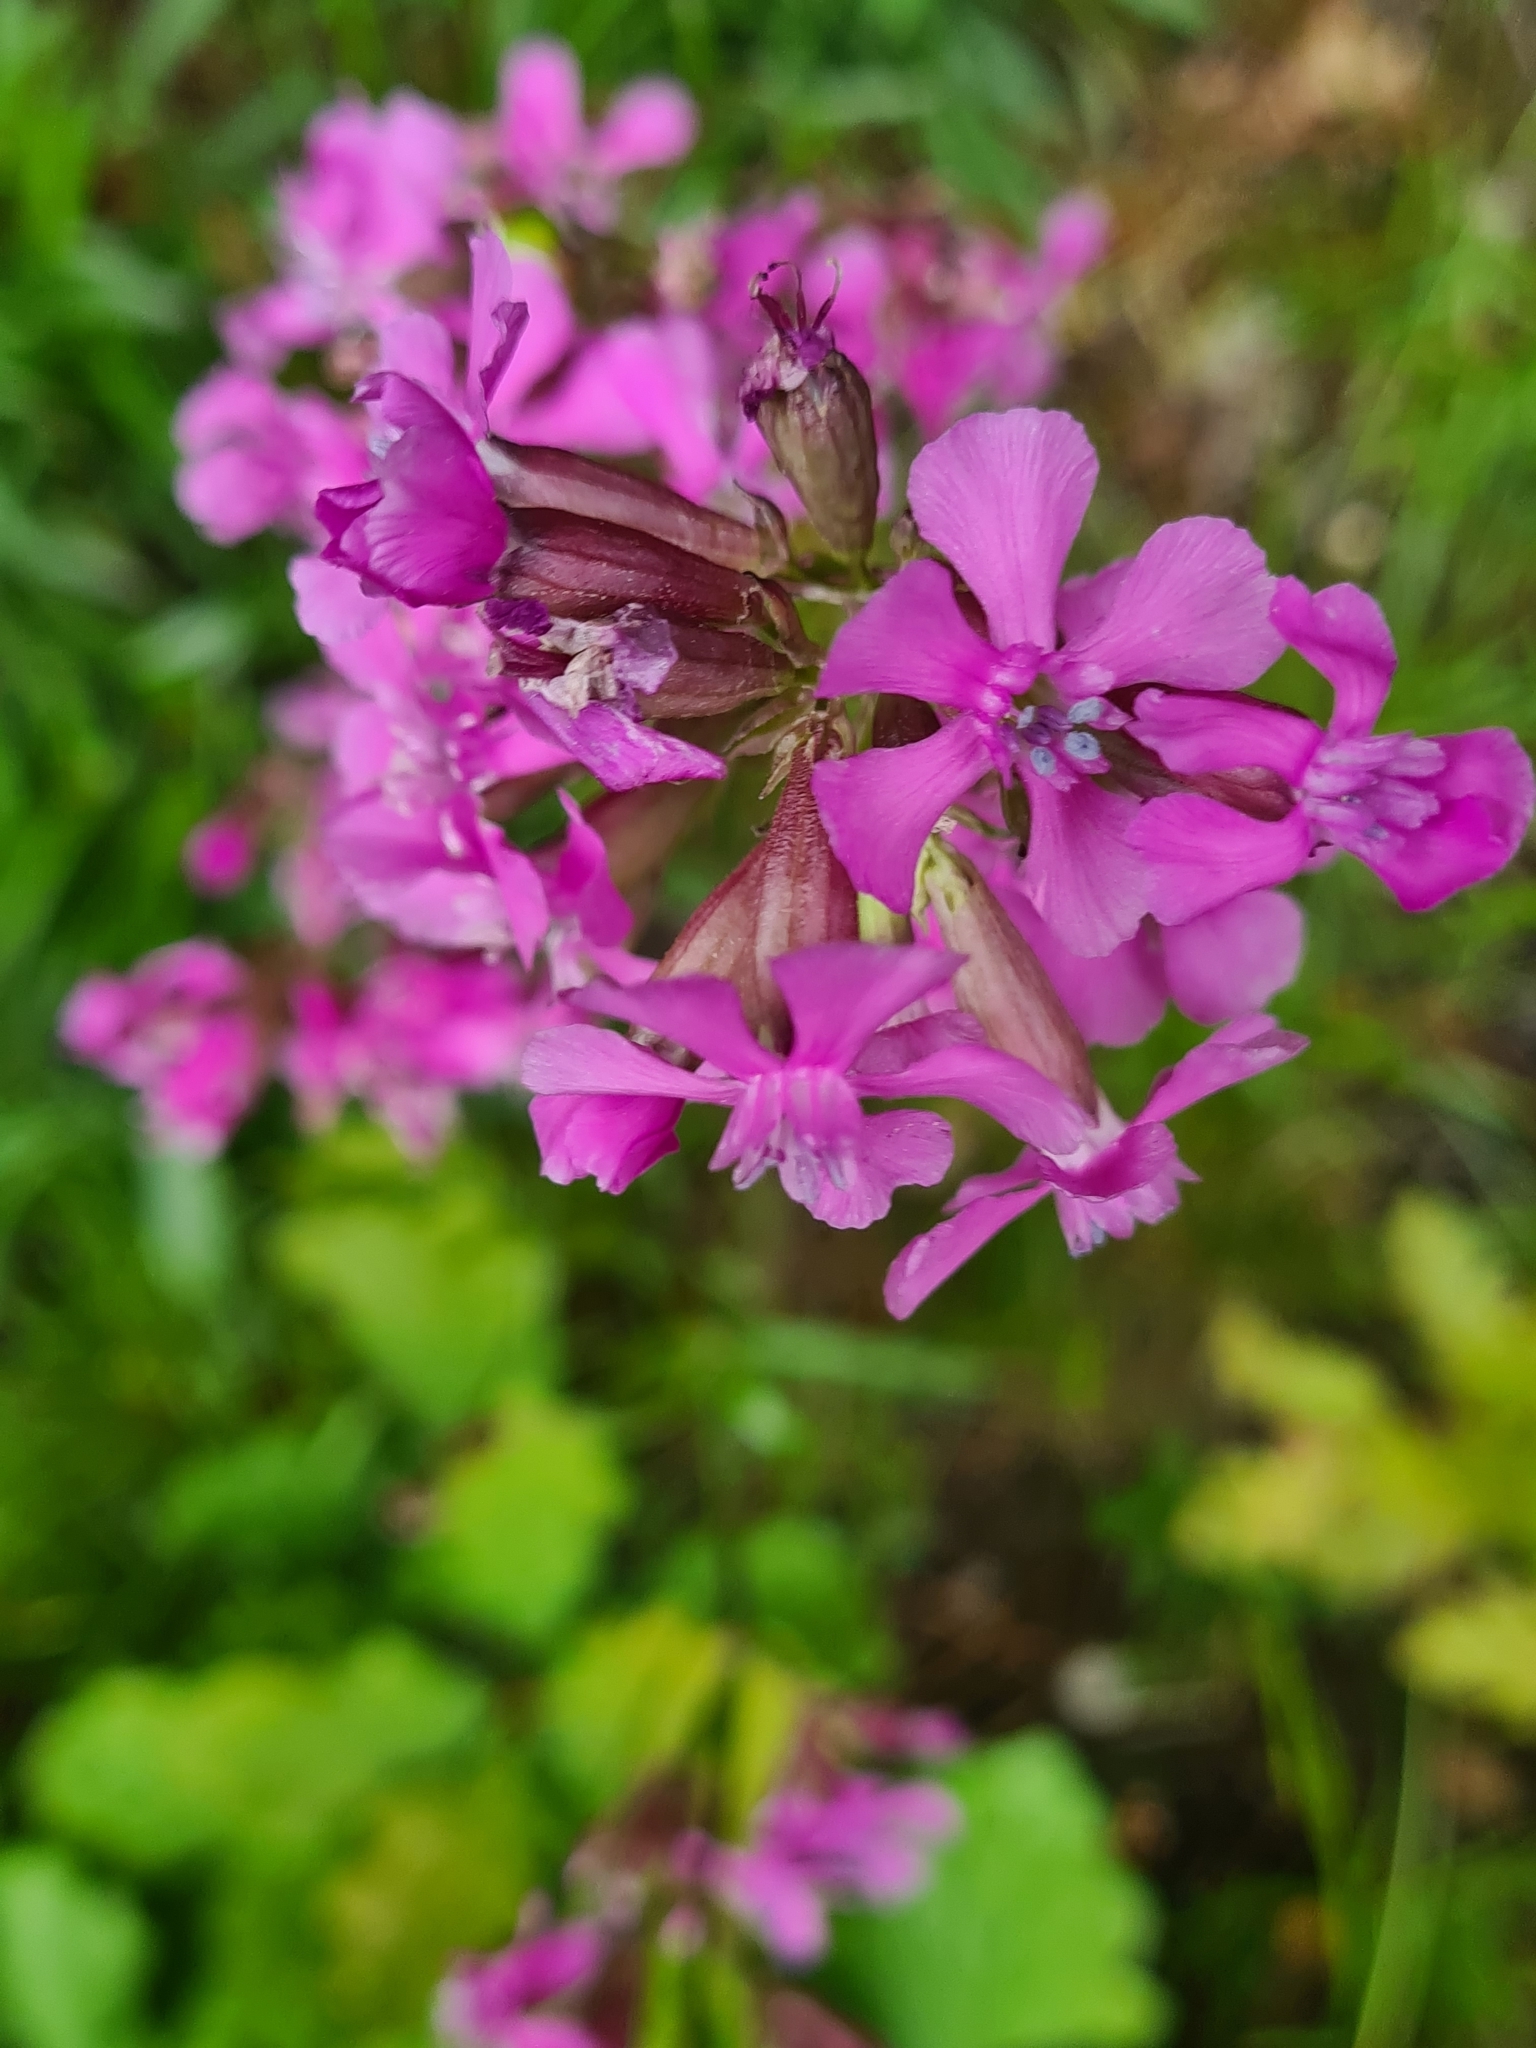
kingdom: Plantae
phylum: Tracheophyta
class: Magnoliopsida
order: Caryophyllales
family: Caryophyllaceae
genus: Viscaria
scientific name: Viscaria vulgaris
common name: Clammy campion
